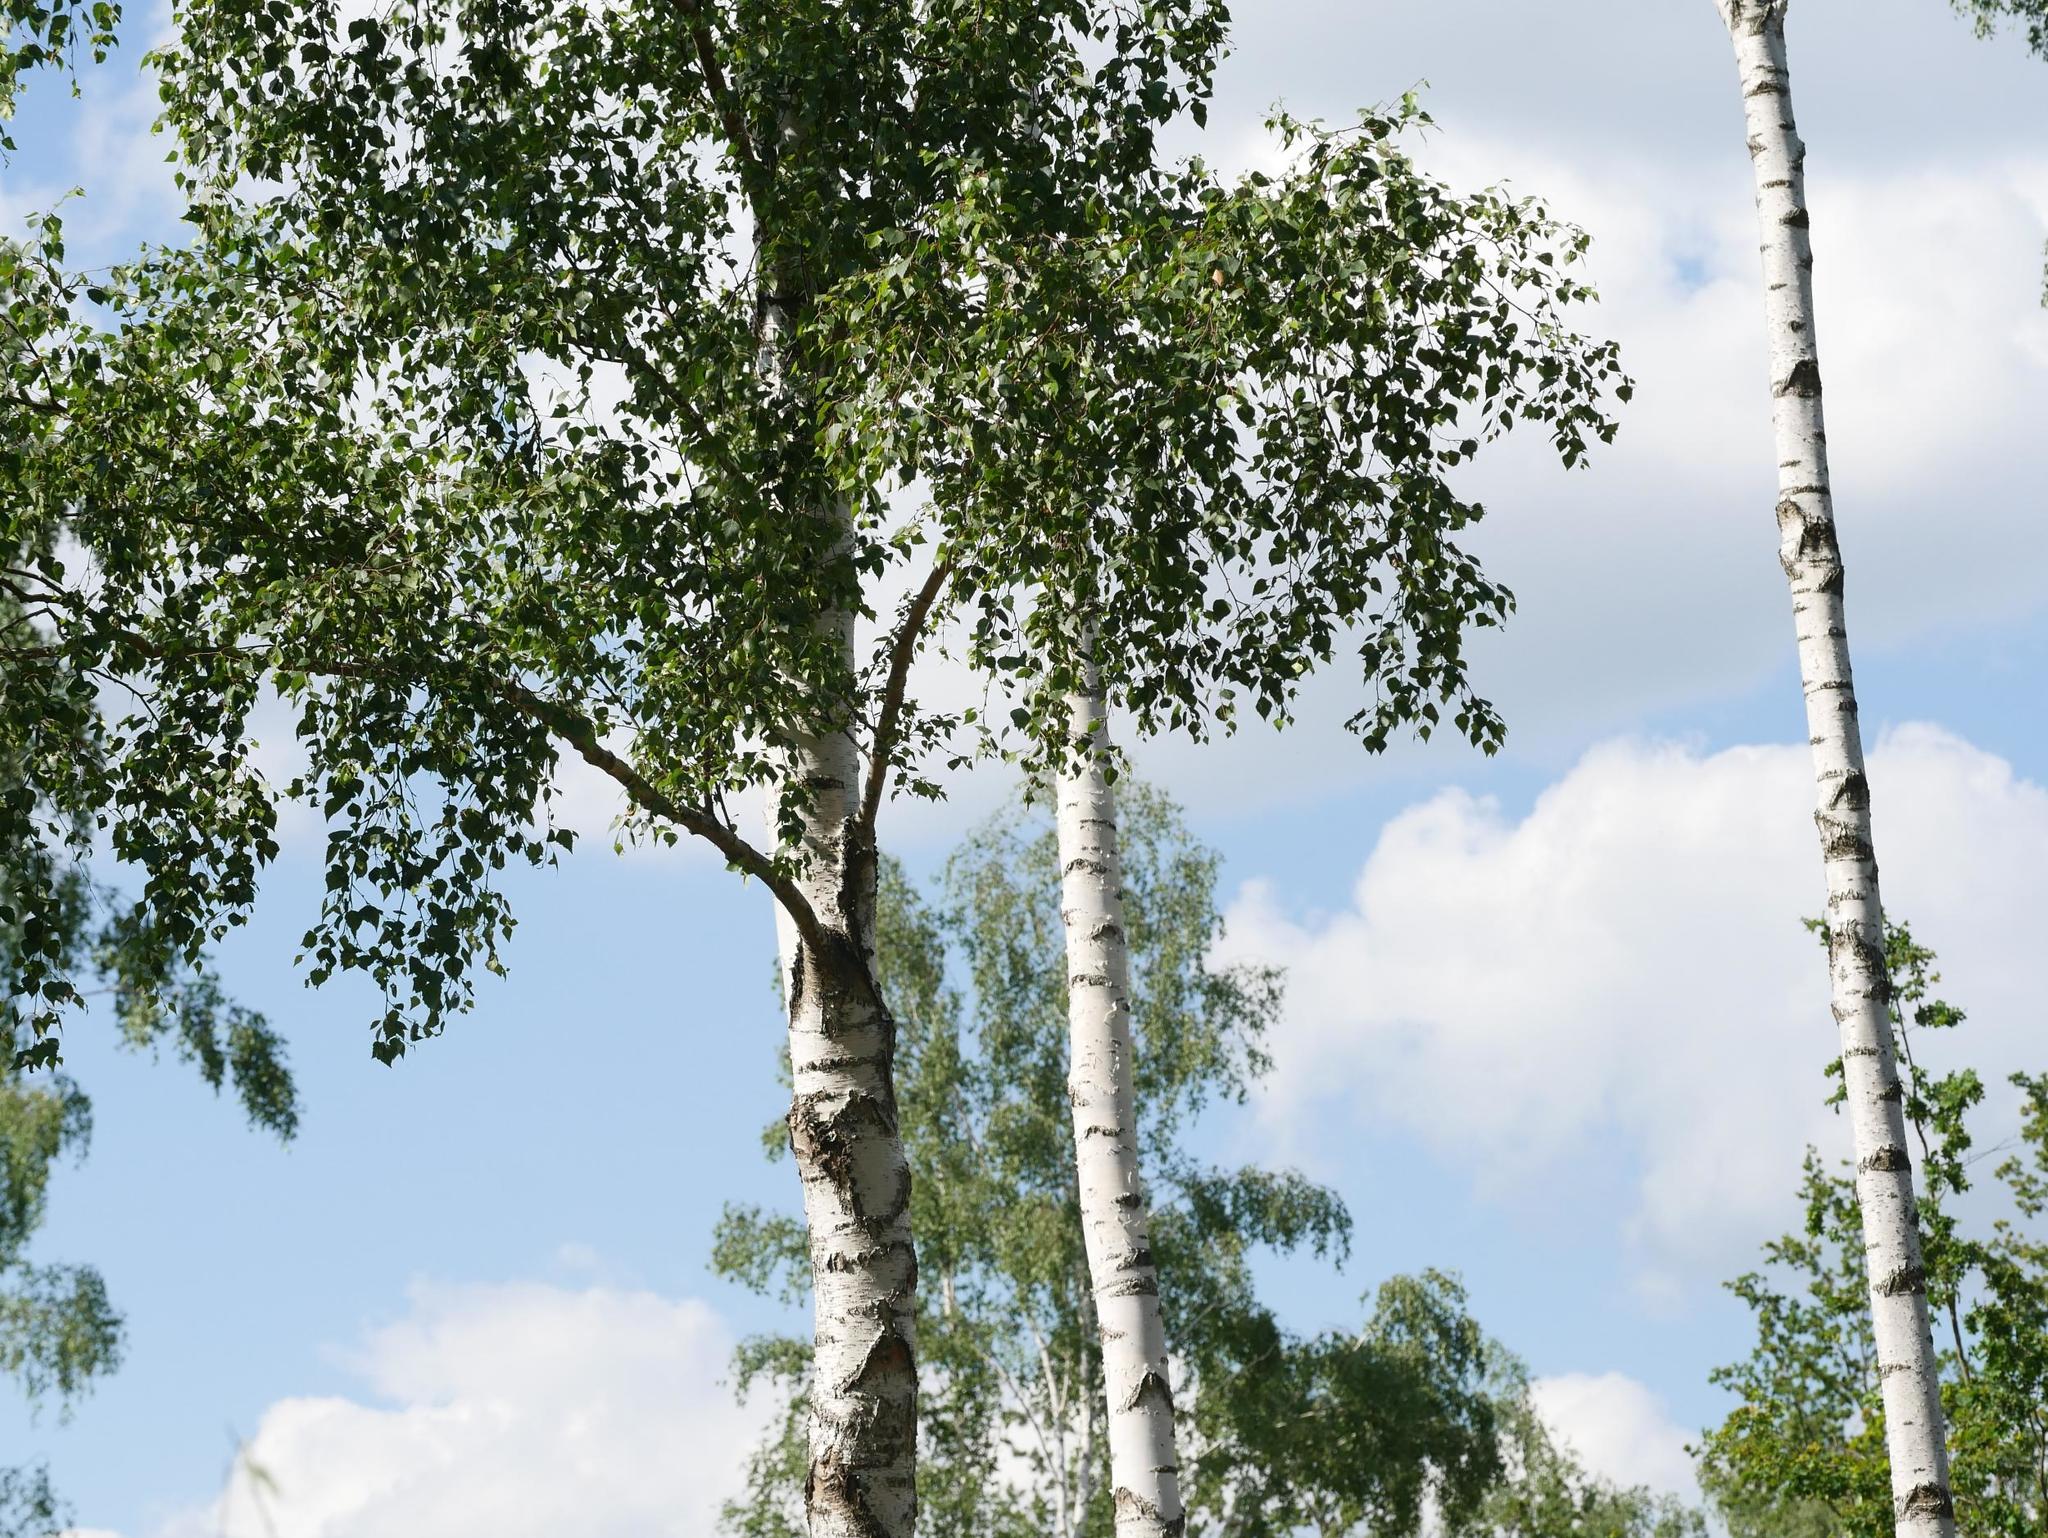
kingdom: Plantae
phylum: Tracheophyta
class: Magnoliopsida
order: Fagales
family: Betulaceae
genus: Betula
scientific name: Betula pendula
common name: Silver birch
